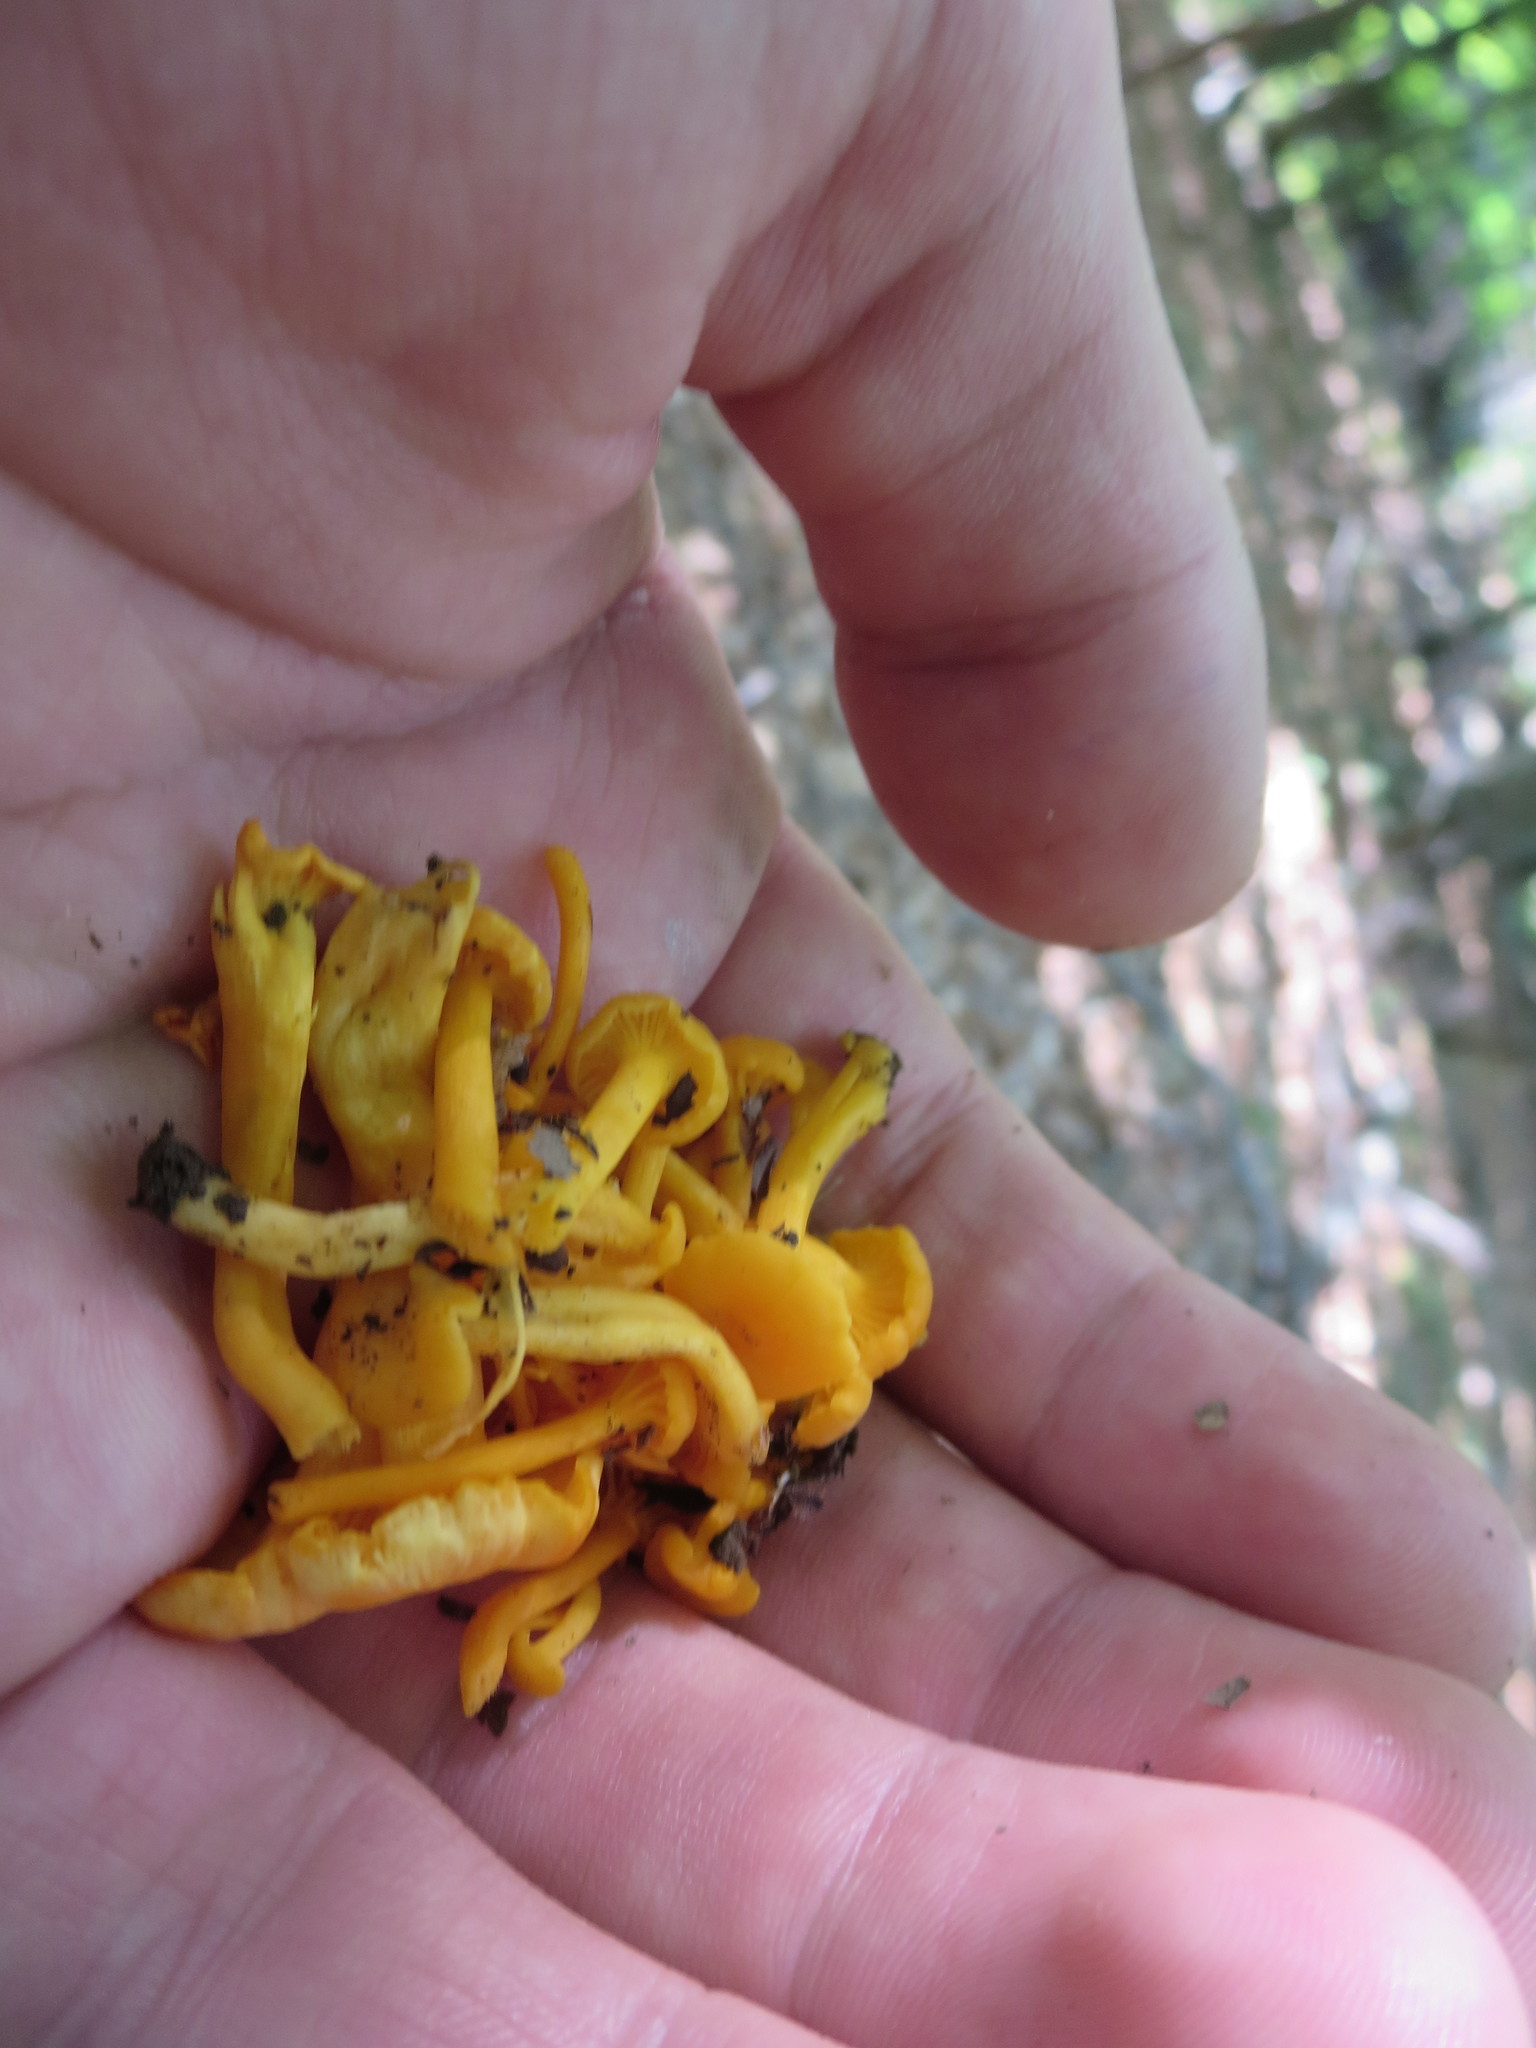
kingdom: Fungi
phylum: Basidiomycota
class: Agaricomycetes
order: Cantharellales
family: Hydnaceae
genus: Cantharellus
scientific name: Cantharellus minor
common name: Small chanterelle
